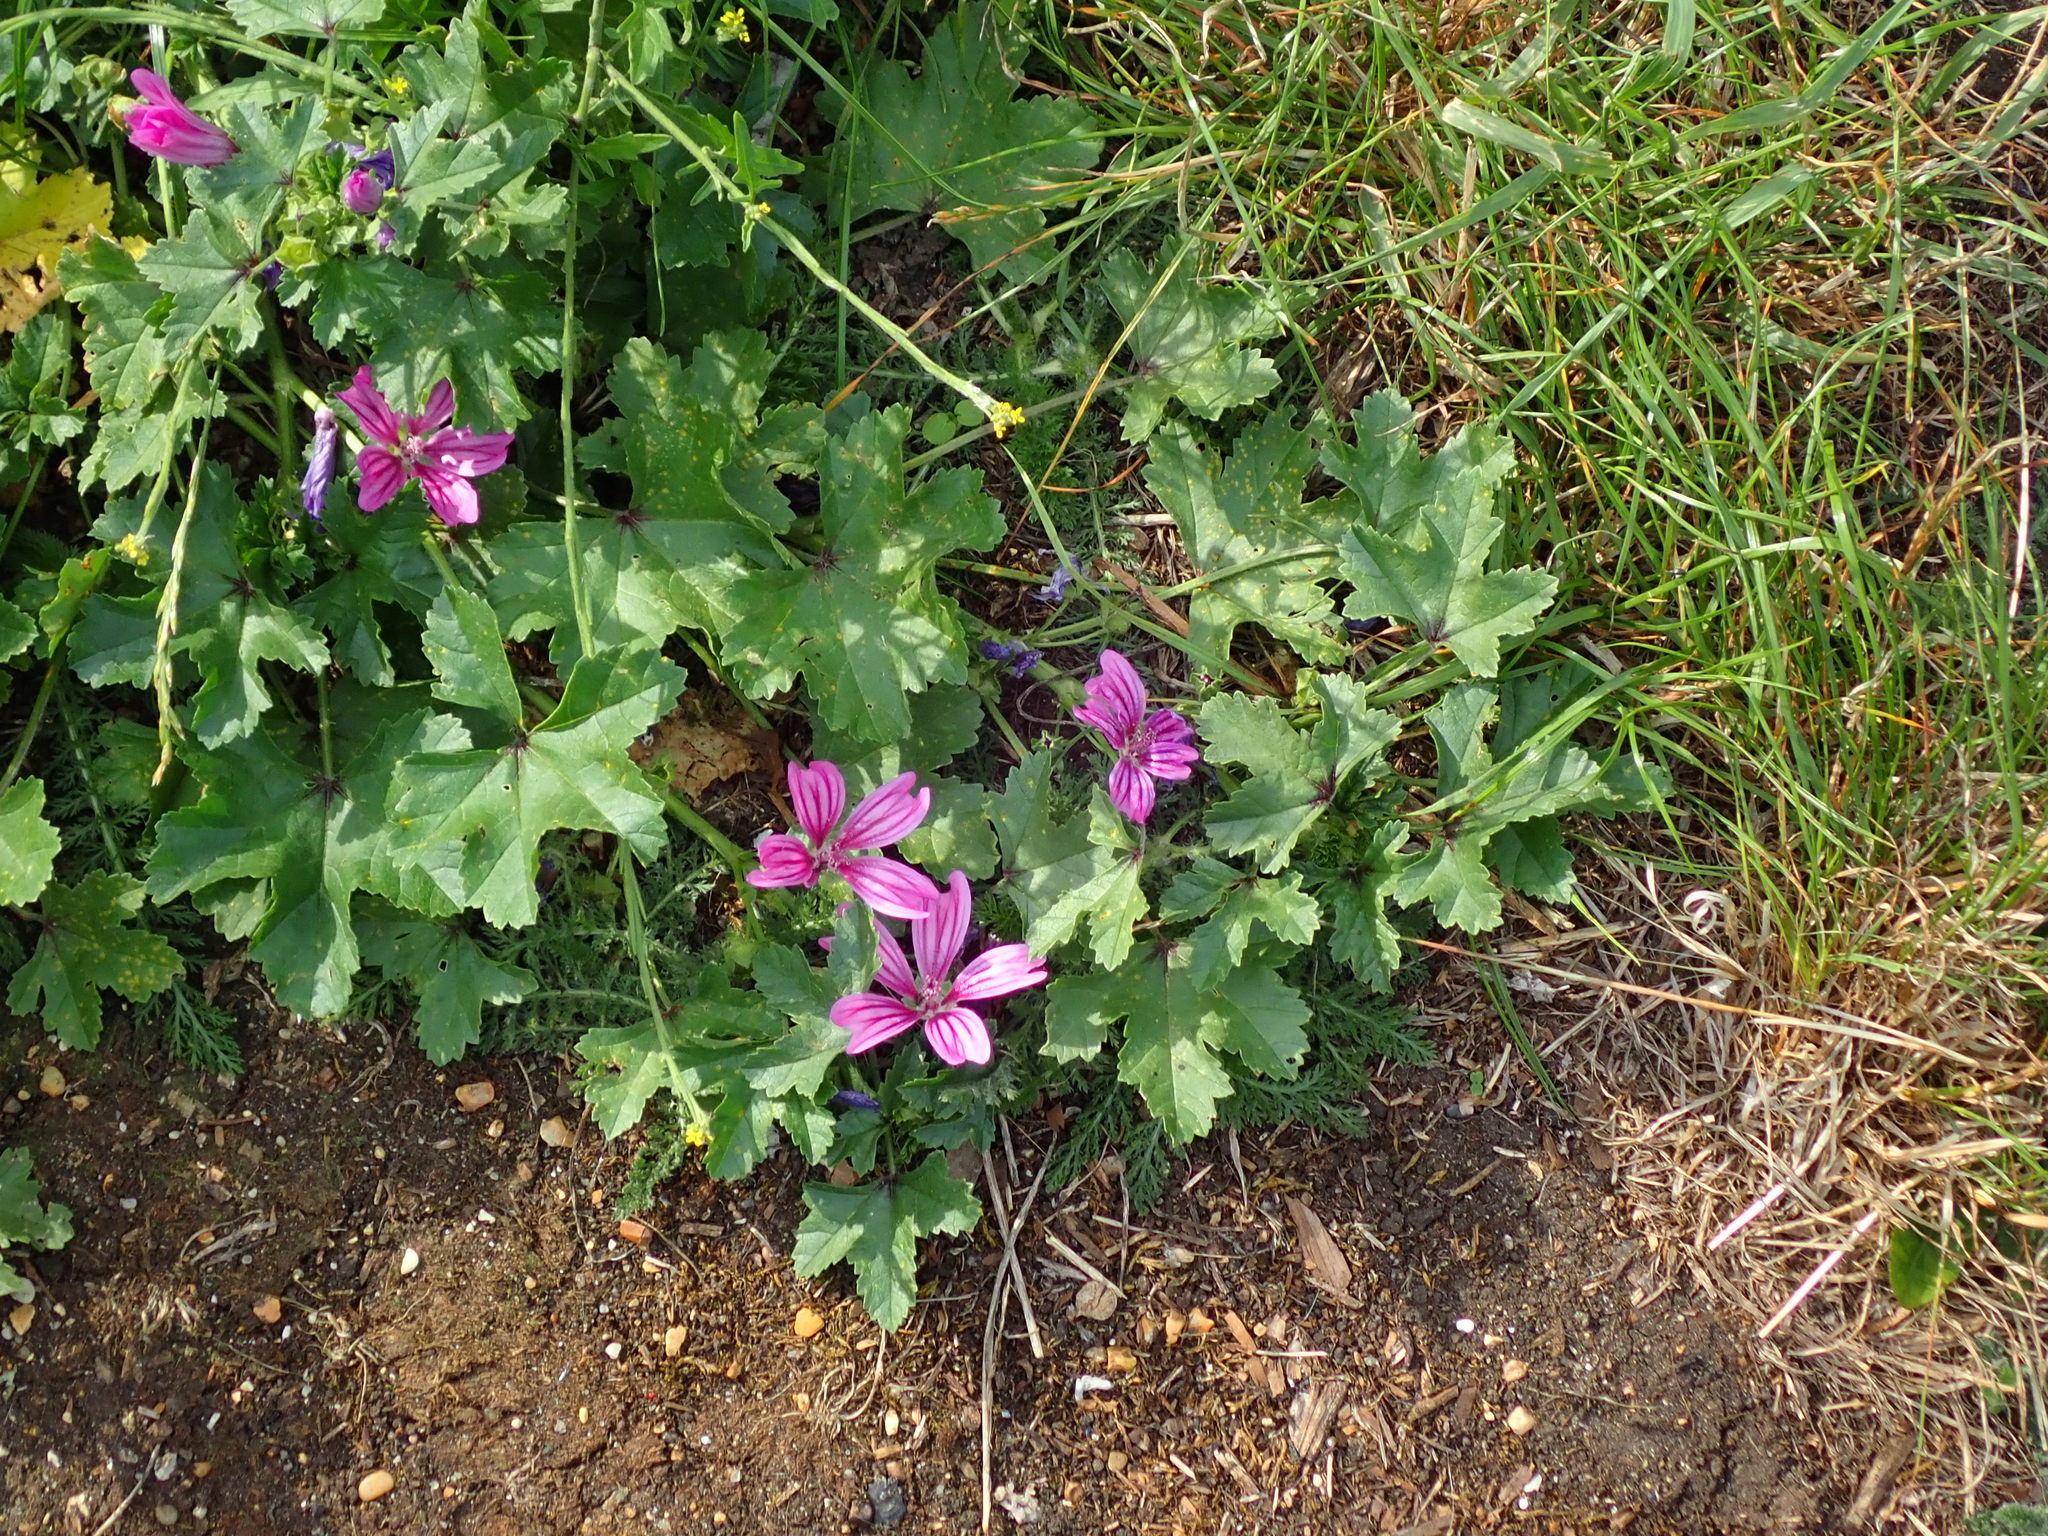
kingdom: Plantae
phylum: Tracheophyta
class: Magnoliopsida
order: Malvales
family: Malvaceae
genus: Malva
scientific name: Malva sylvestris
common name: Common mallow
